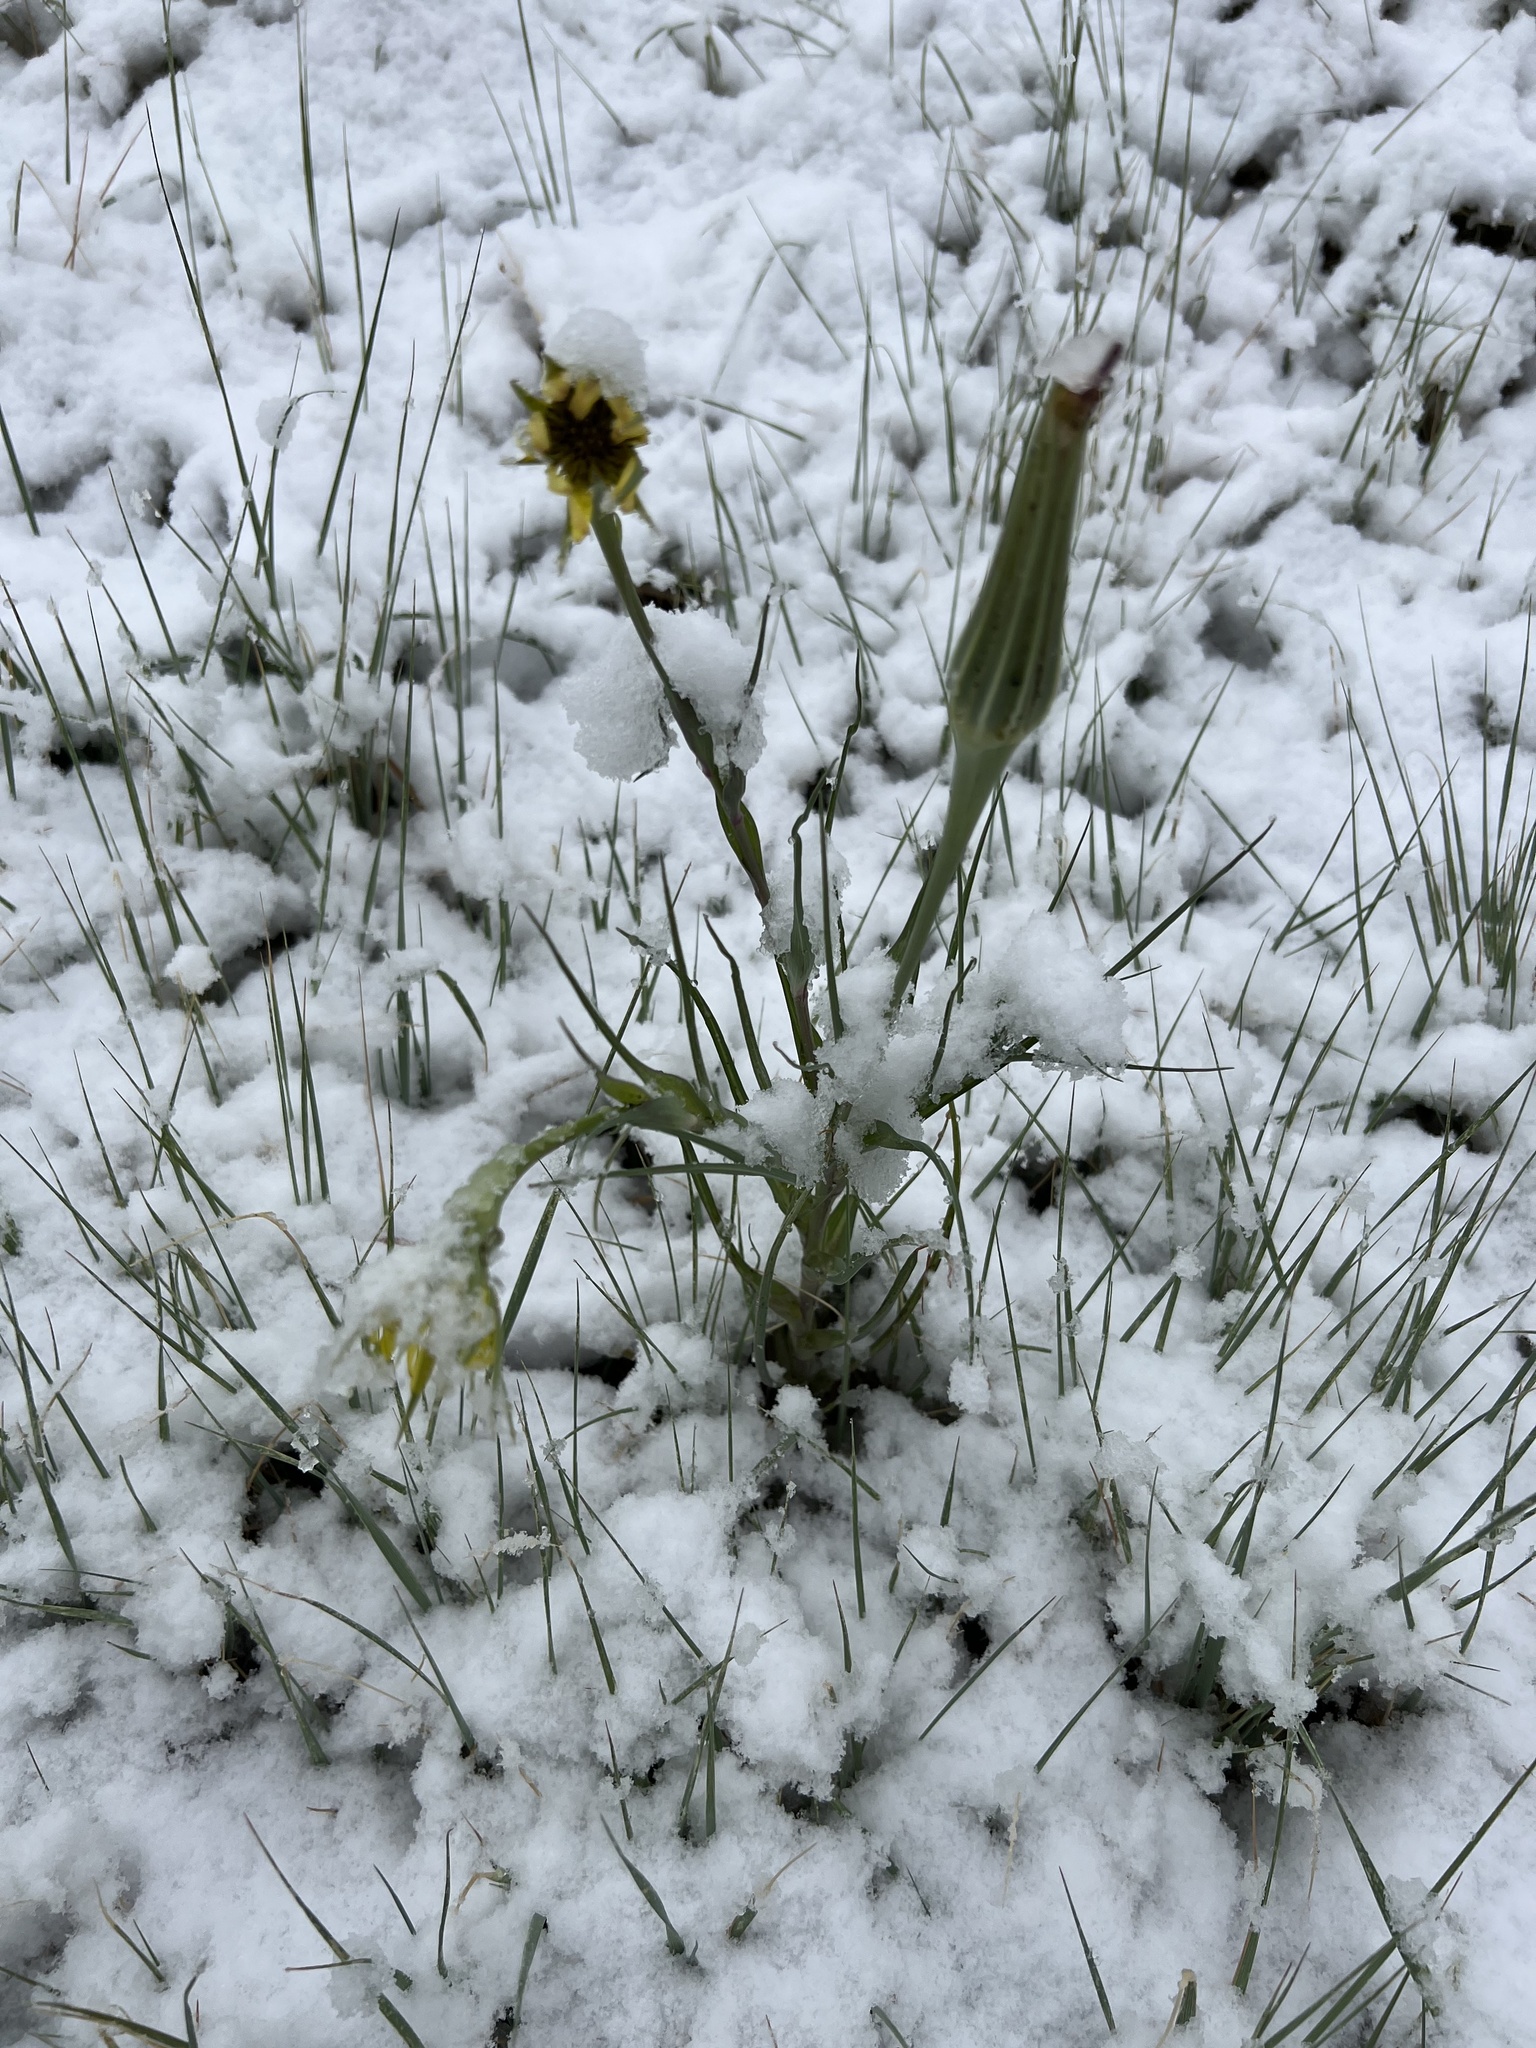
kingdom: Plantae
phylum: Tracheophyta
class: Magnoliopsida
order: Asterales
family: Asteraceae
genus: Tragopogon
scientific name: Tragopogon dubius
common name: Yellow salsify
